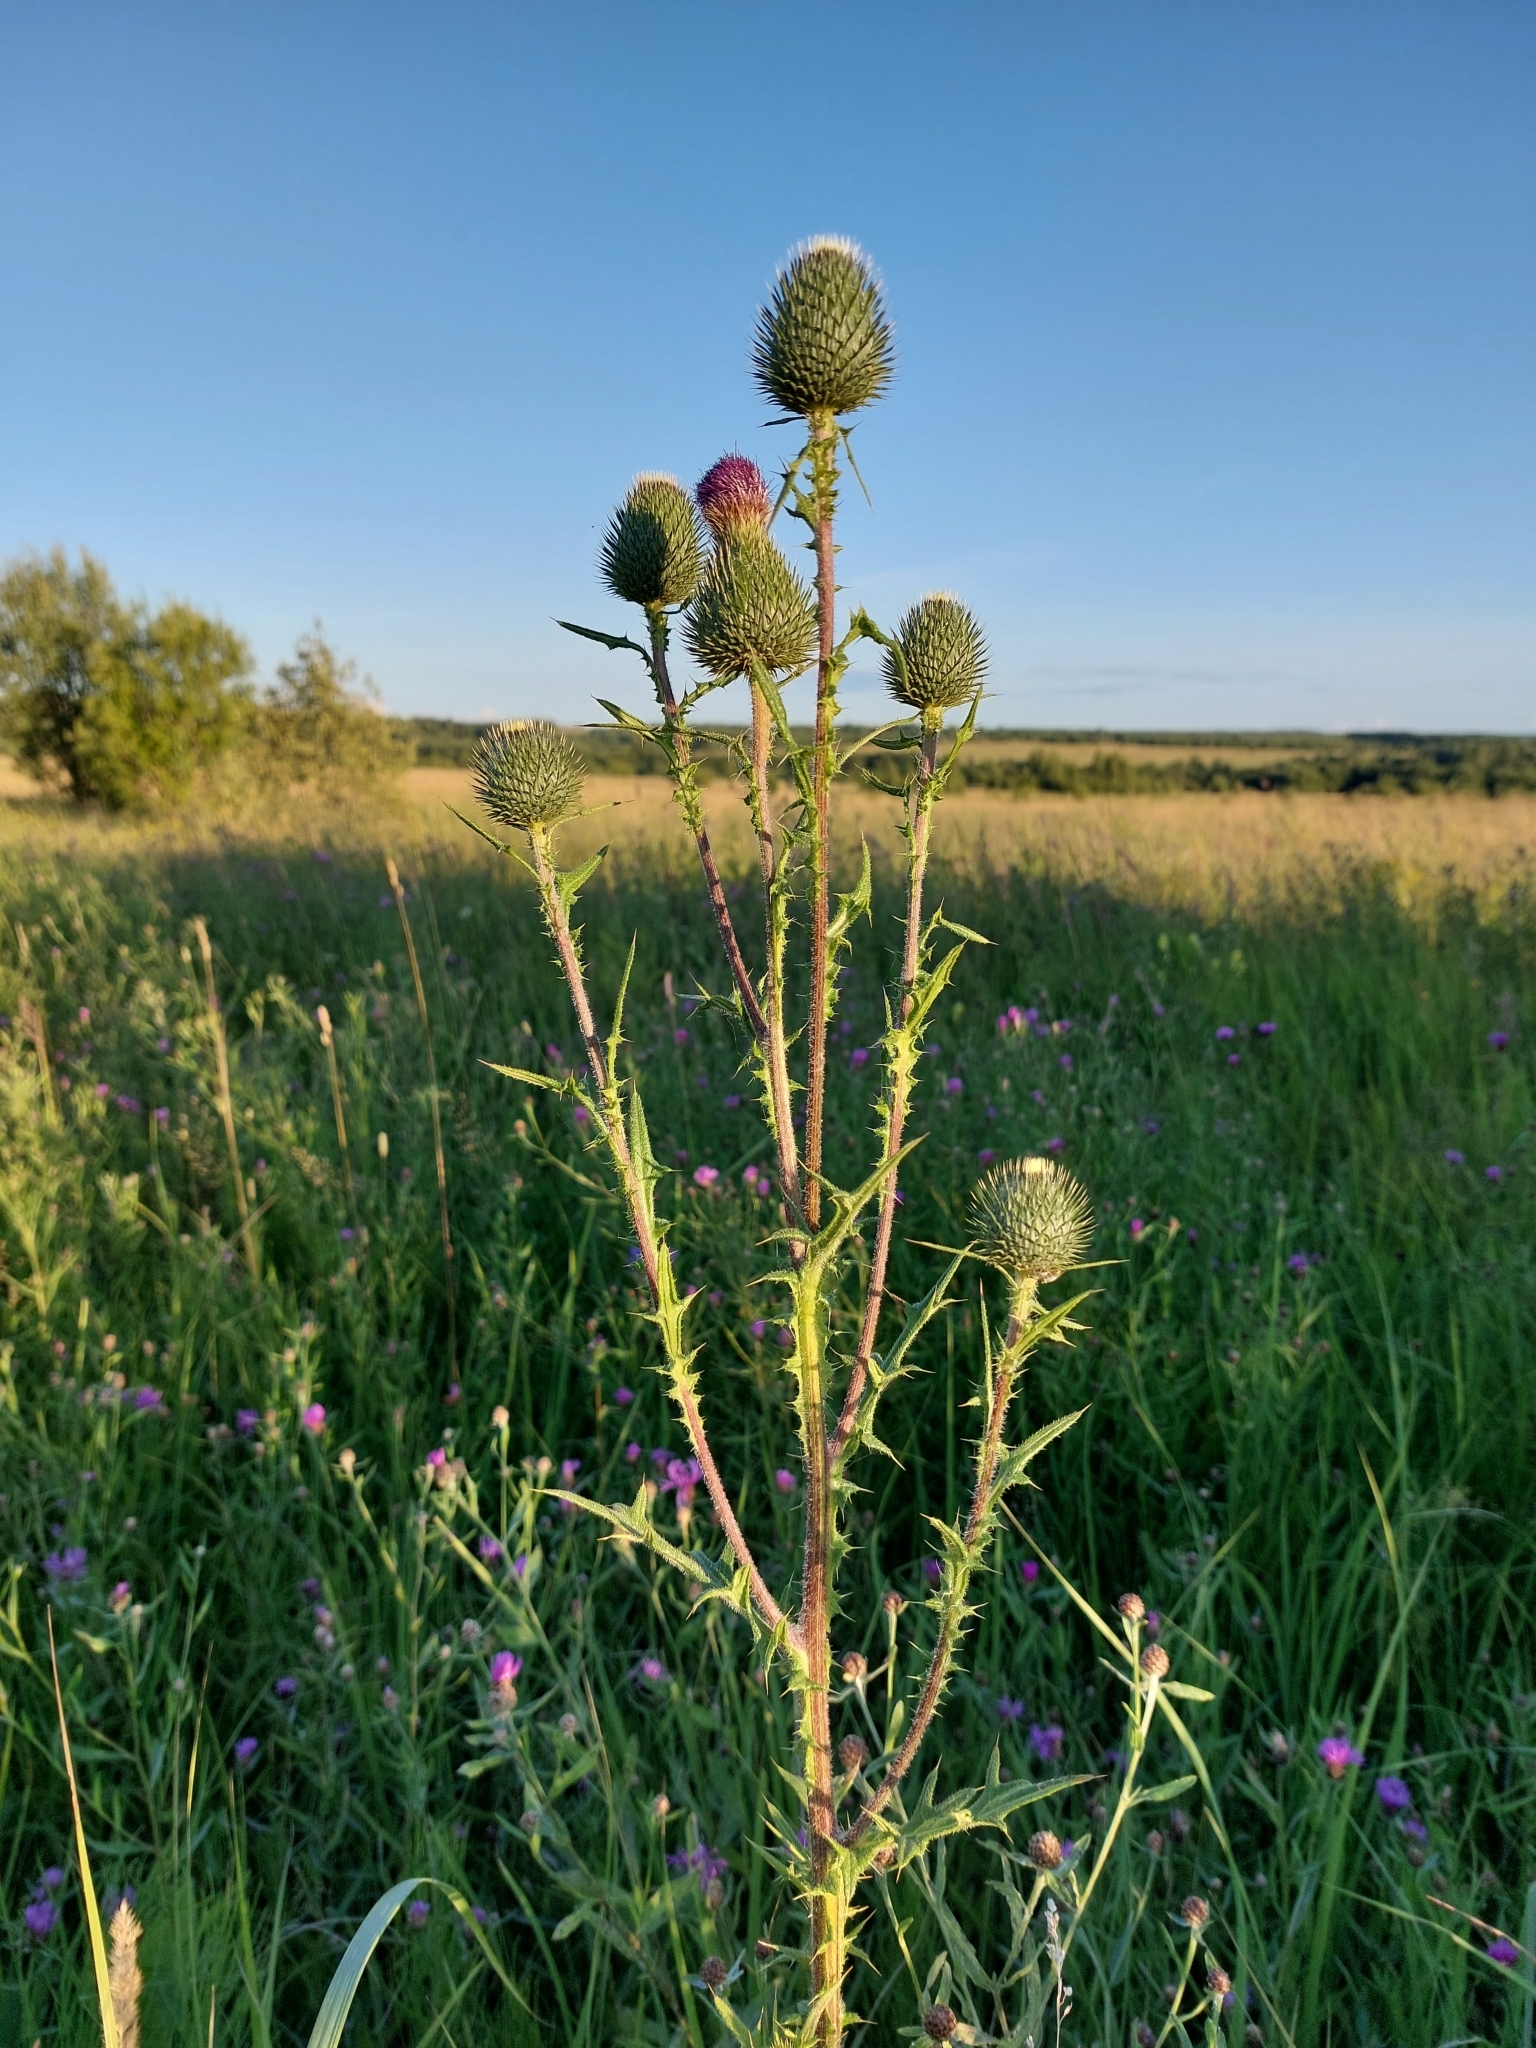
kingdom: Plantae
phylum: Tracheophyta
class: Magnoliopsida
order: Asterales
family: Asteraceae
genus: Cirsium
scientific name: Cirsium vulgare
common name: Bull thistle
